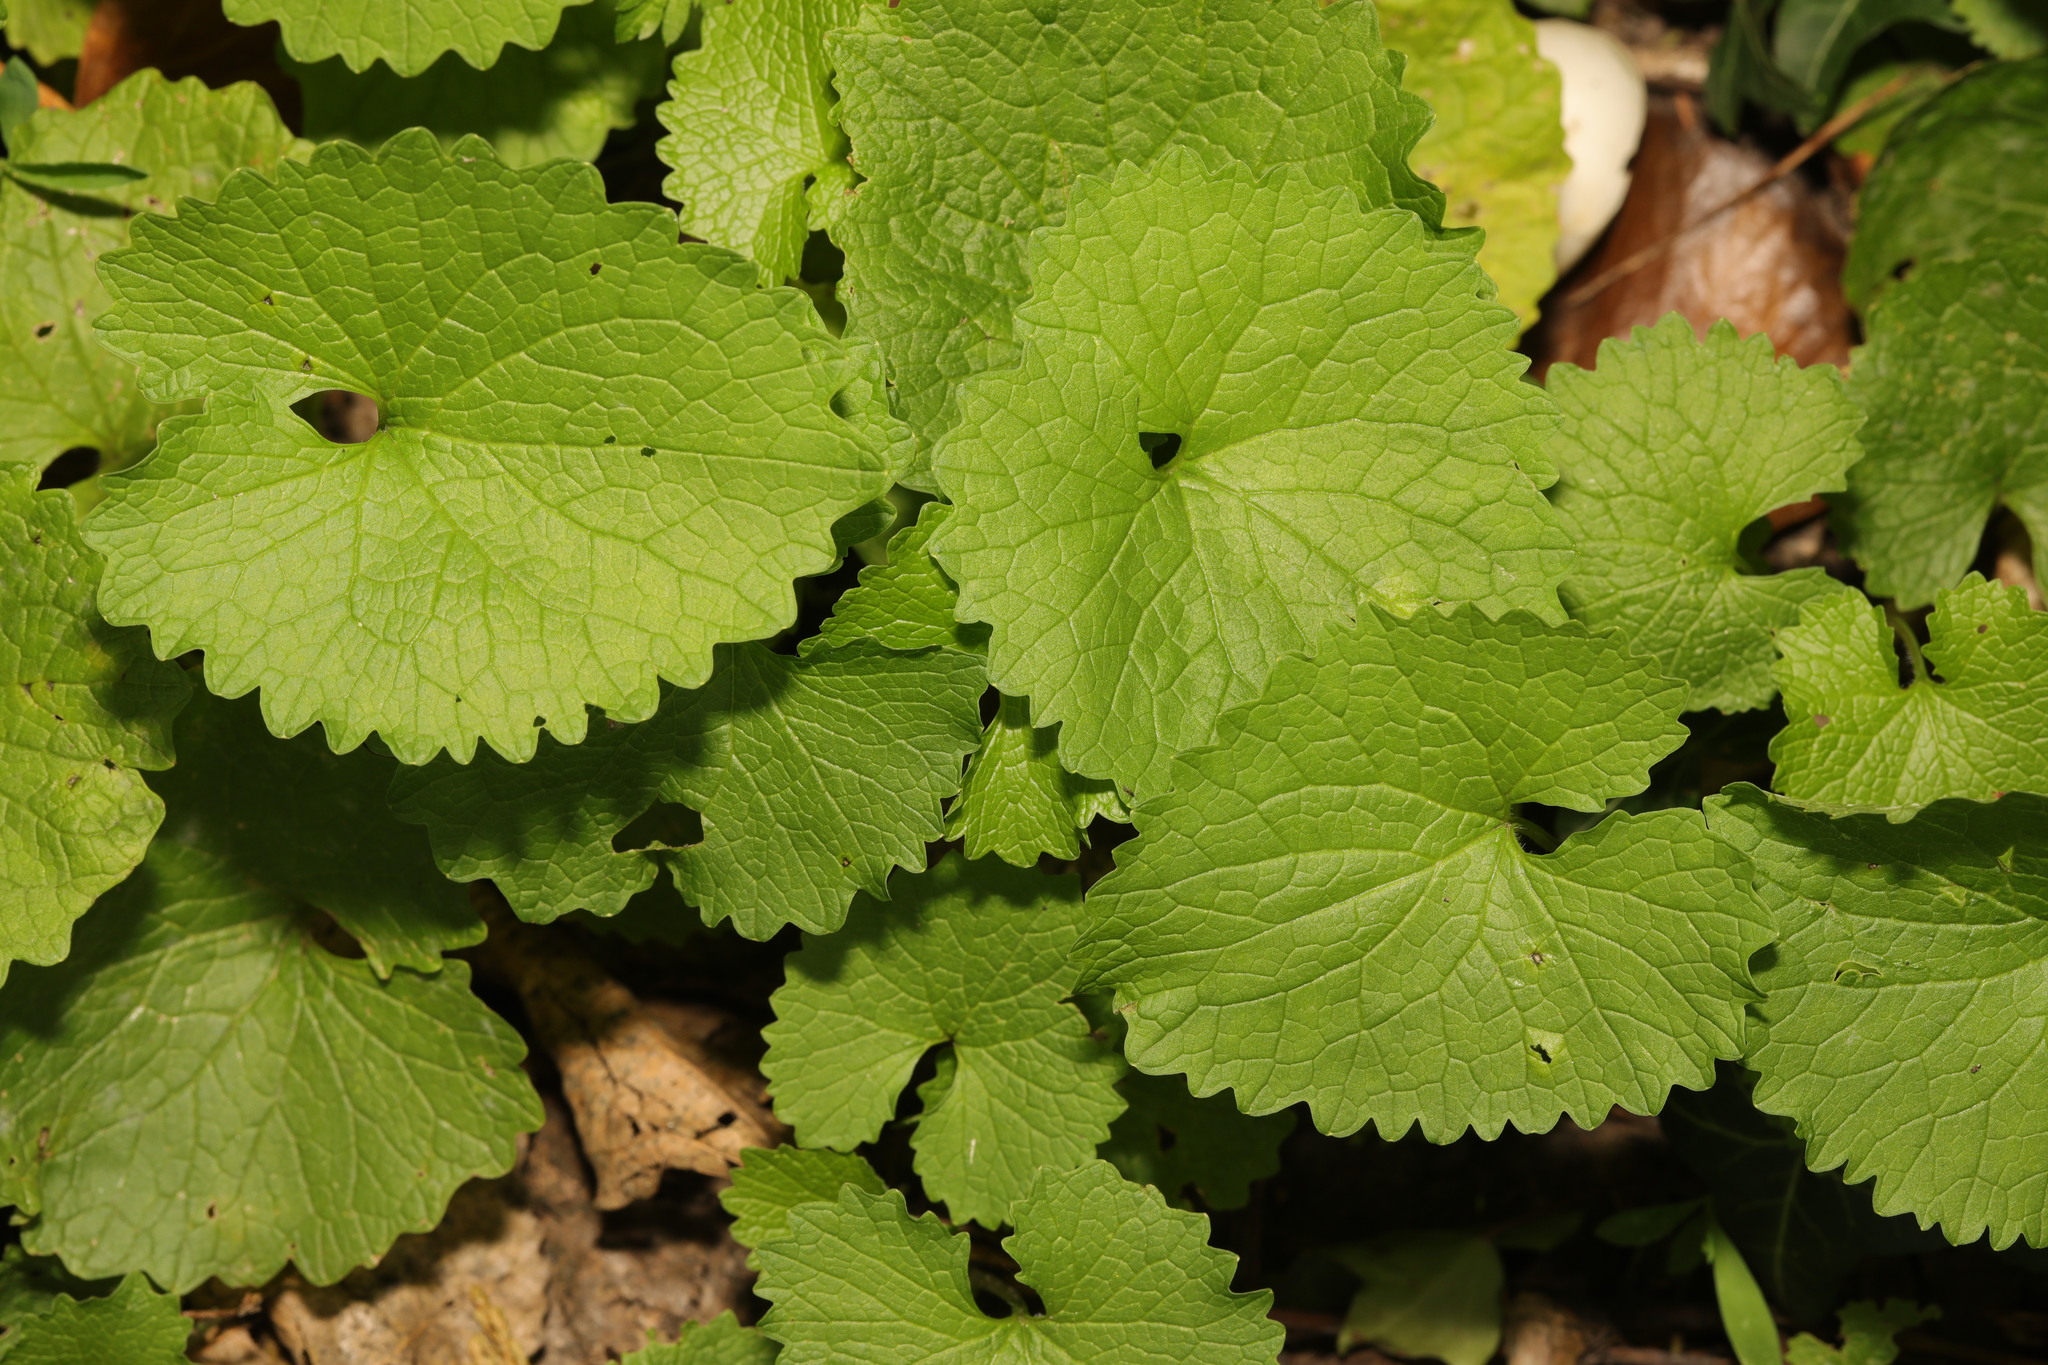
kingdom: Plantae
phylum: Tracheophyta
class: Magnoliopsida
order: Brassicales
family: Brassicaceae
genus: Alliaria
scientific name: Alliaria petiolata
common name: Garlic mustard
